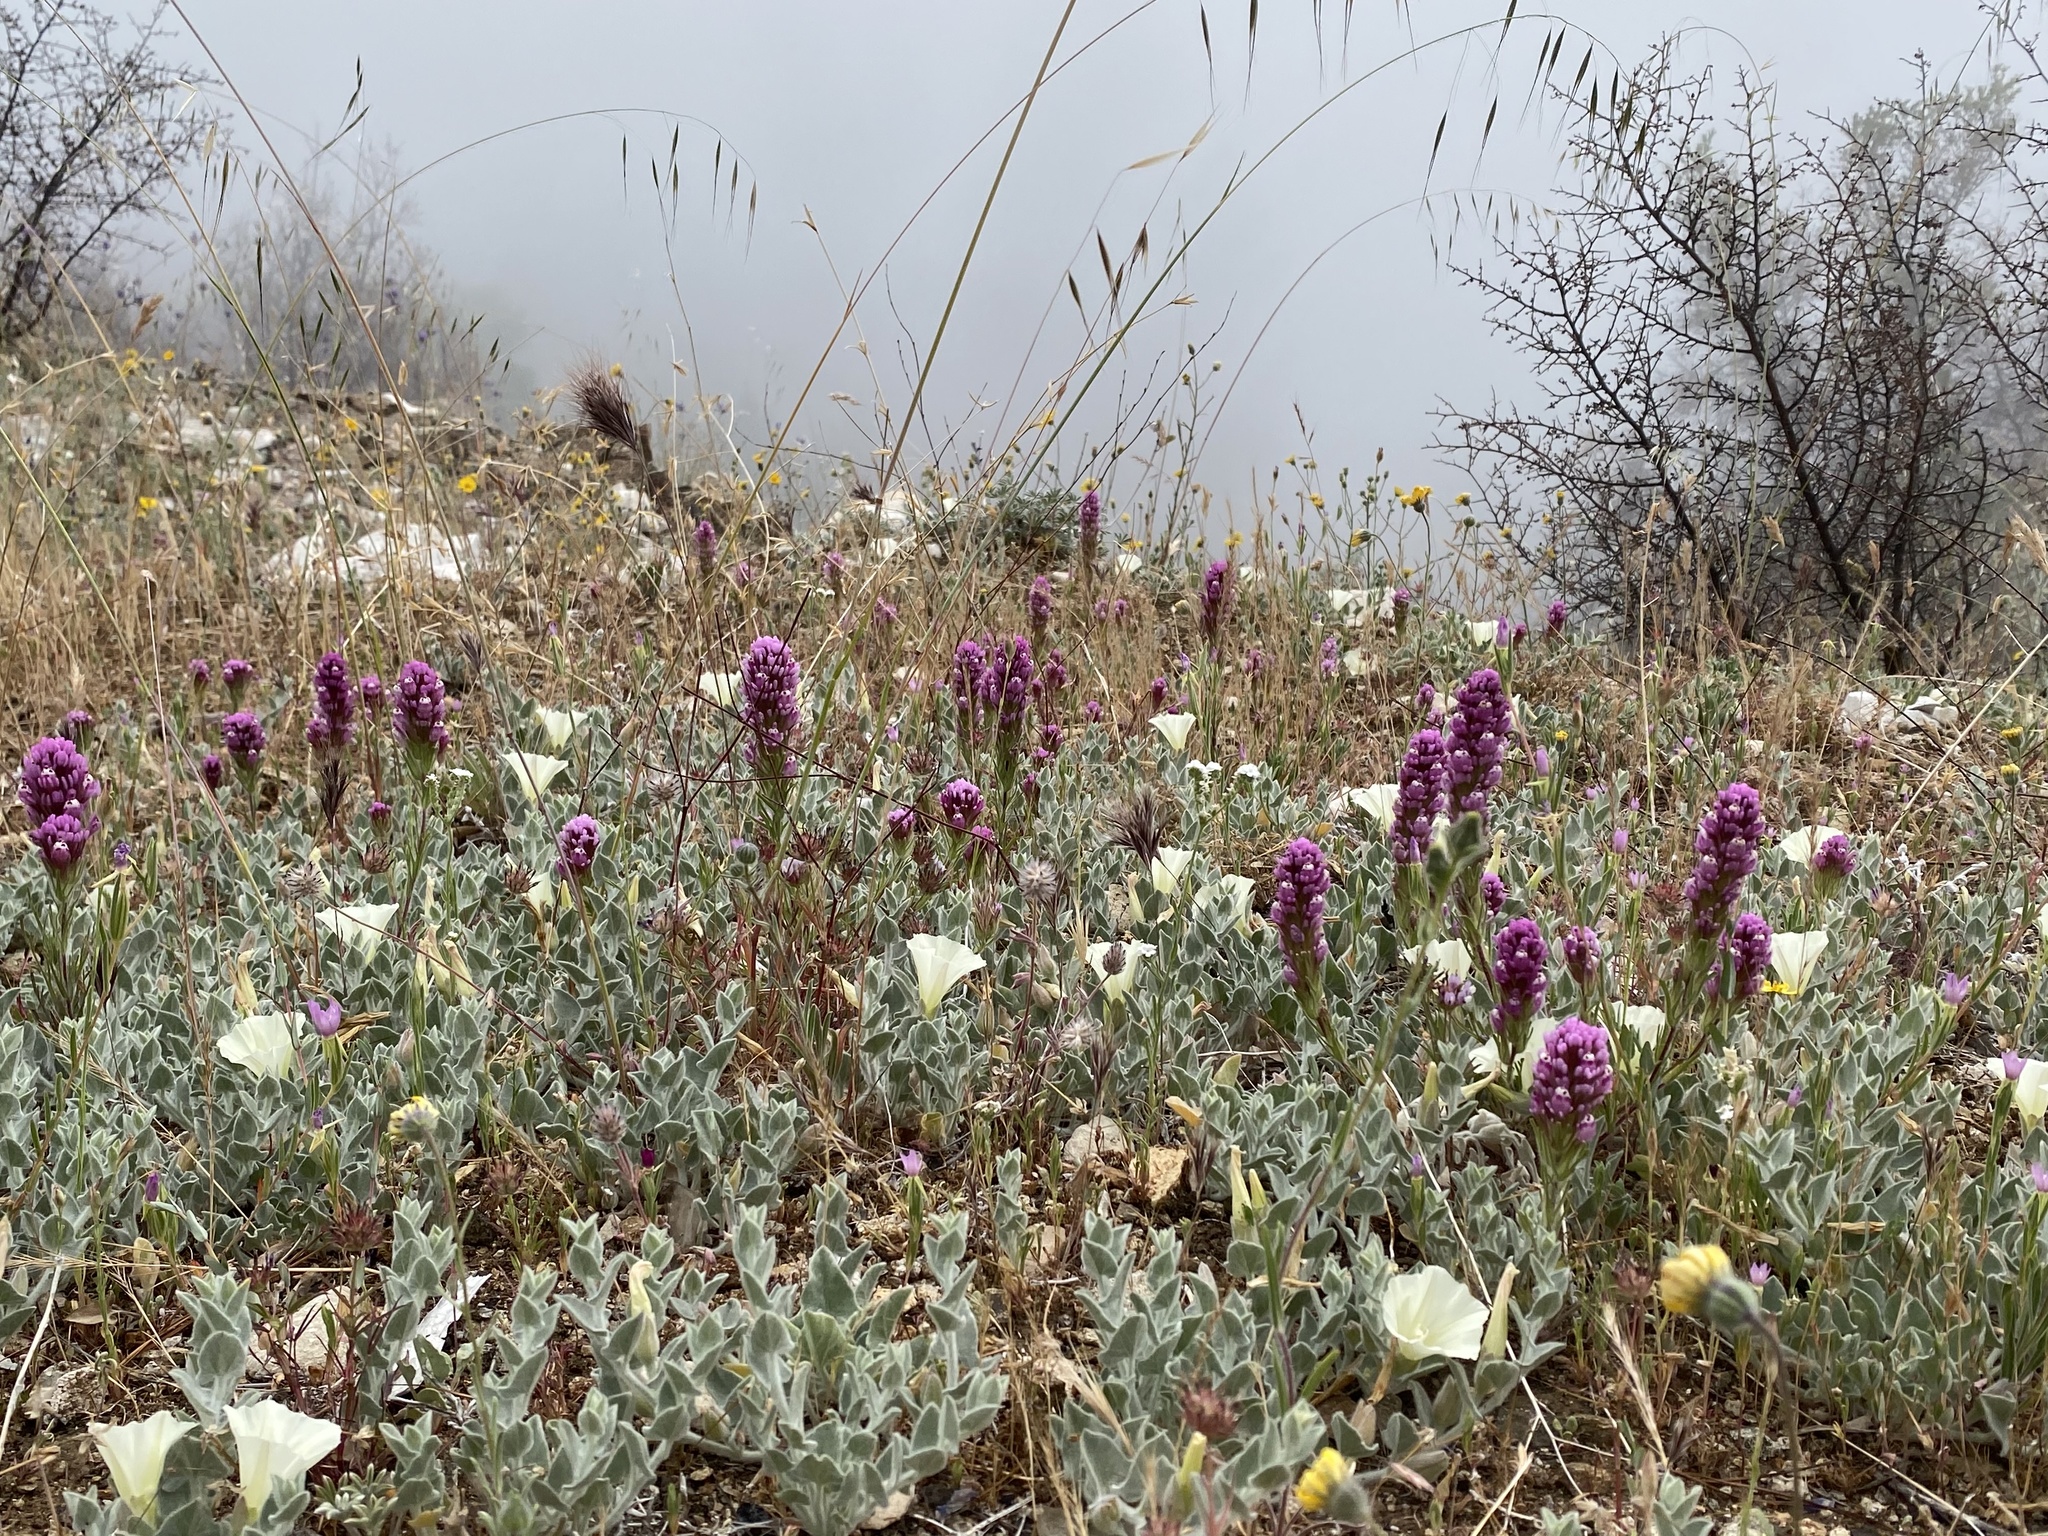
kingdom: Plantae
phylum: Tracheophyta
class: Magnoliopsida
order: Lamiales
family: Orobanchaceae
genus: Castilleja
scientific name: Castilleja exserta
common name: Purple owl-clover
